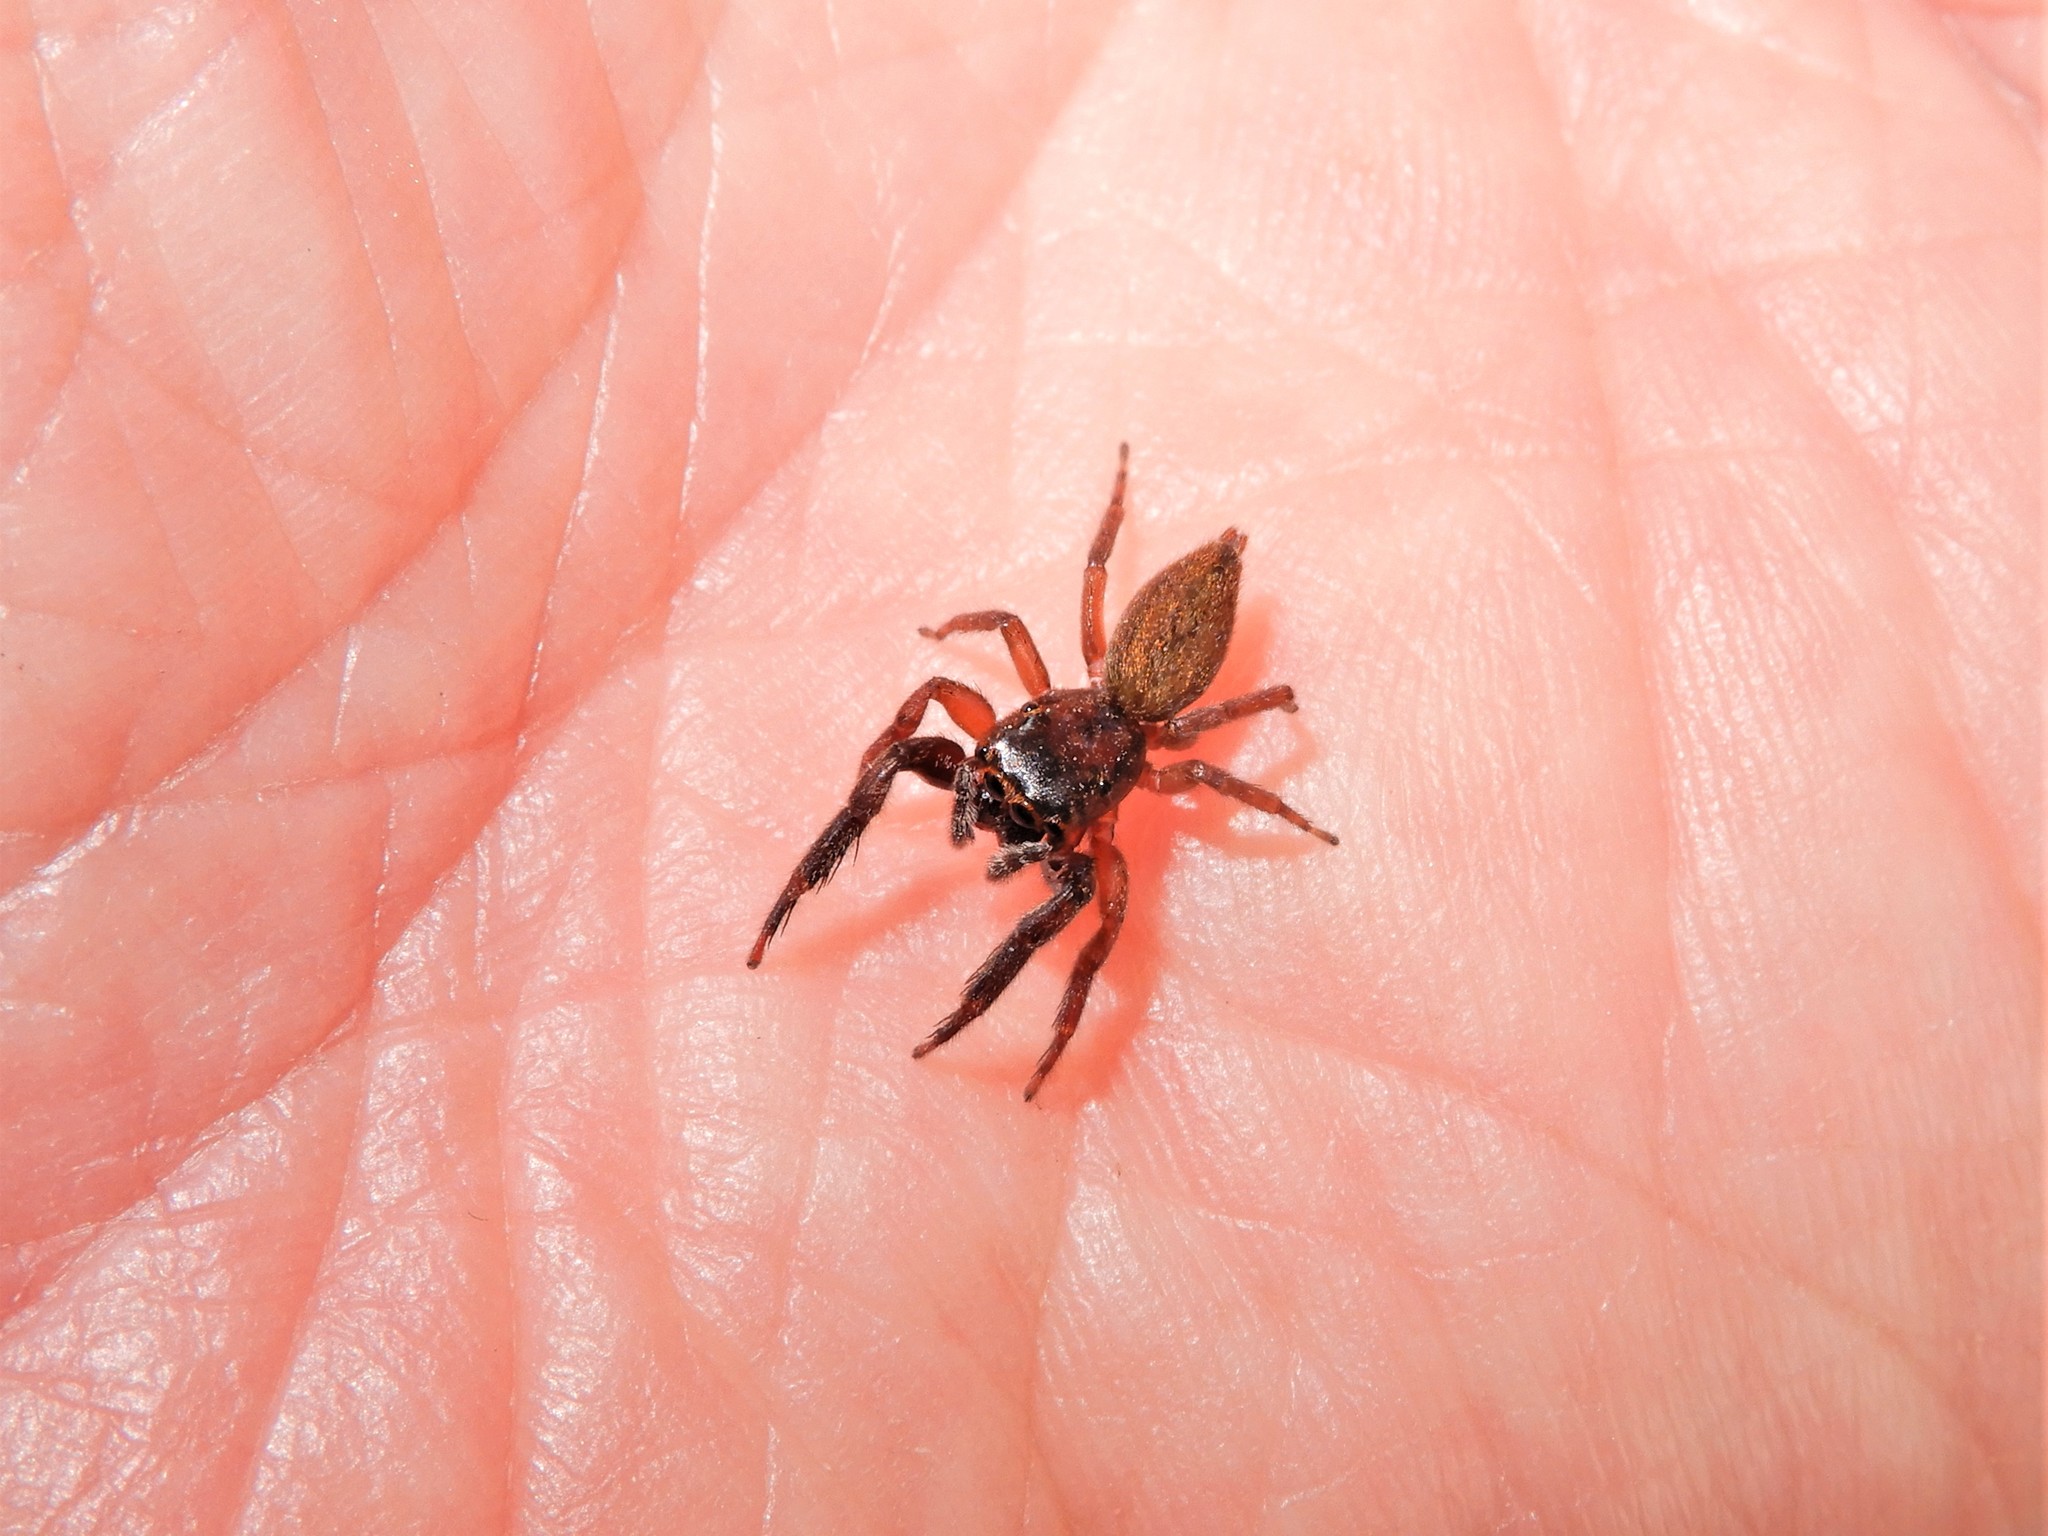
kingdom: Animalia
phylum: Arthropoda
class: Arachnida
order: Araneae
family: Salticidae
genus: Trite
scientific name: Trite auricoma
